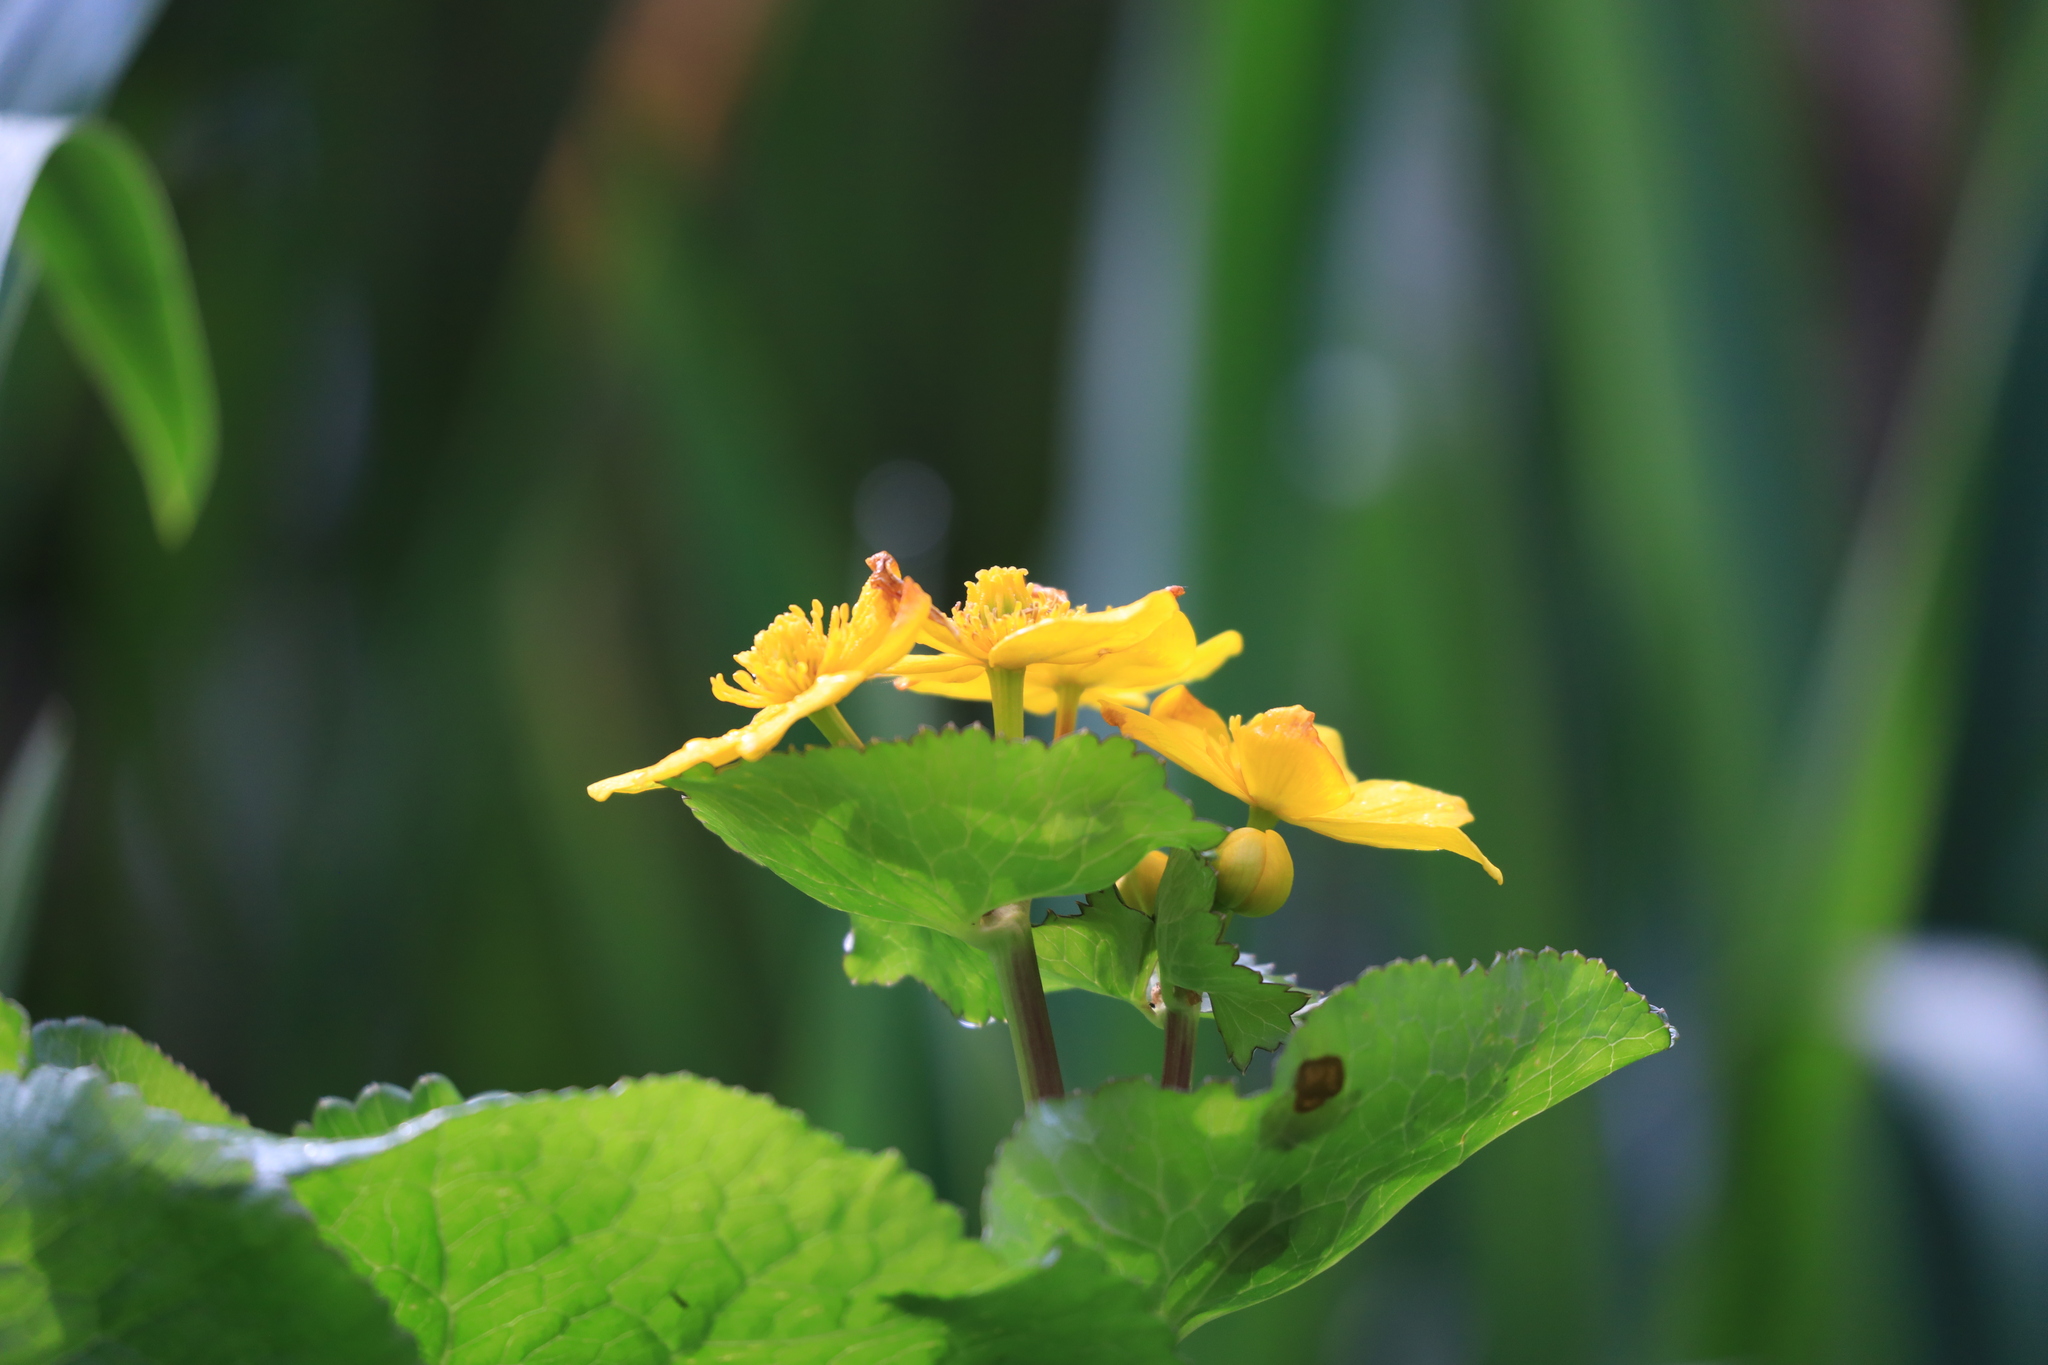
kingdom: Plantae
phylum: Tracheophyta
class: Magnoliopsida
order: Ranunculales
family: Ranunculaceae
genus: Caltha
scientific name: Caltha palustris
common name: Marsh marigold
